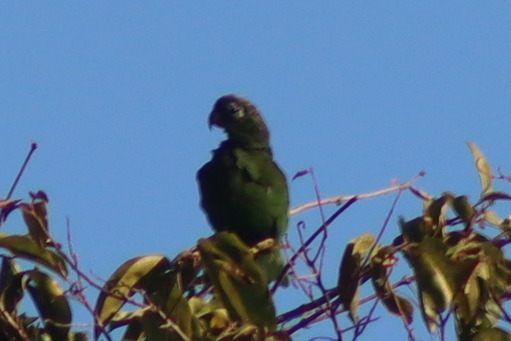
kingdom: Animalia
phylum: Chordata
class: Aves
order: Psittaciformes
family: Psittacidae
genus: Pionus
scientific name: Pionus maximiliani
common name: Scaly-headed parrot
